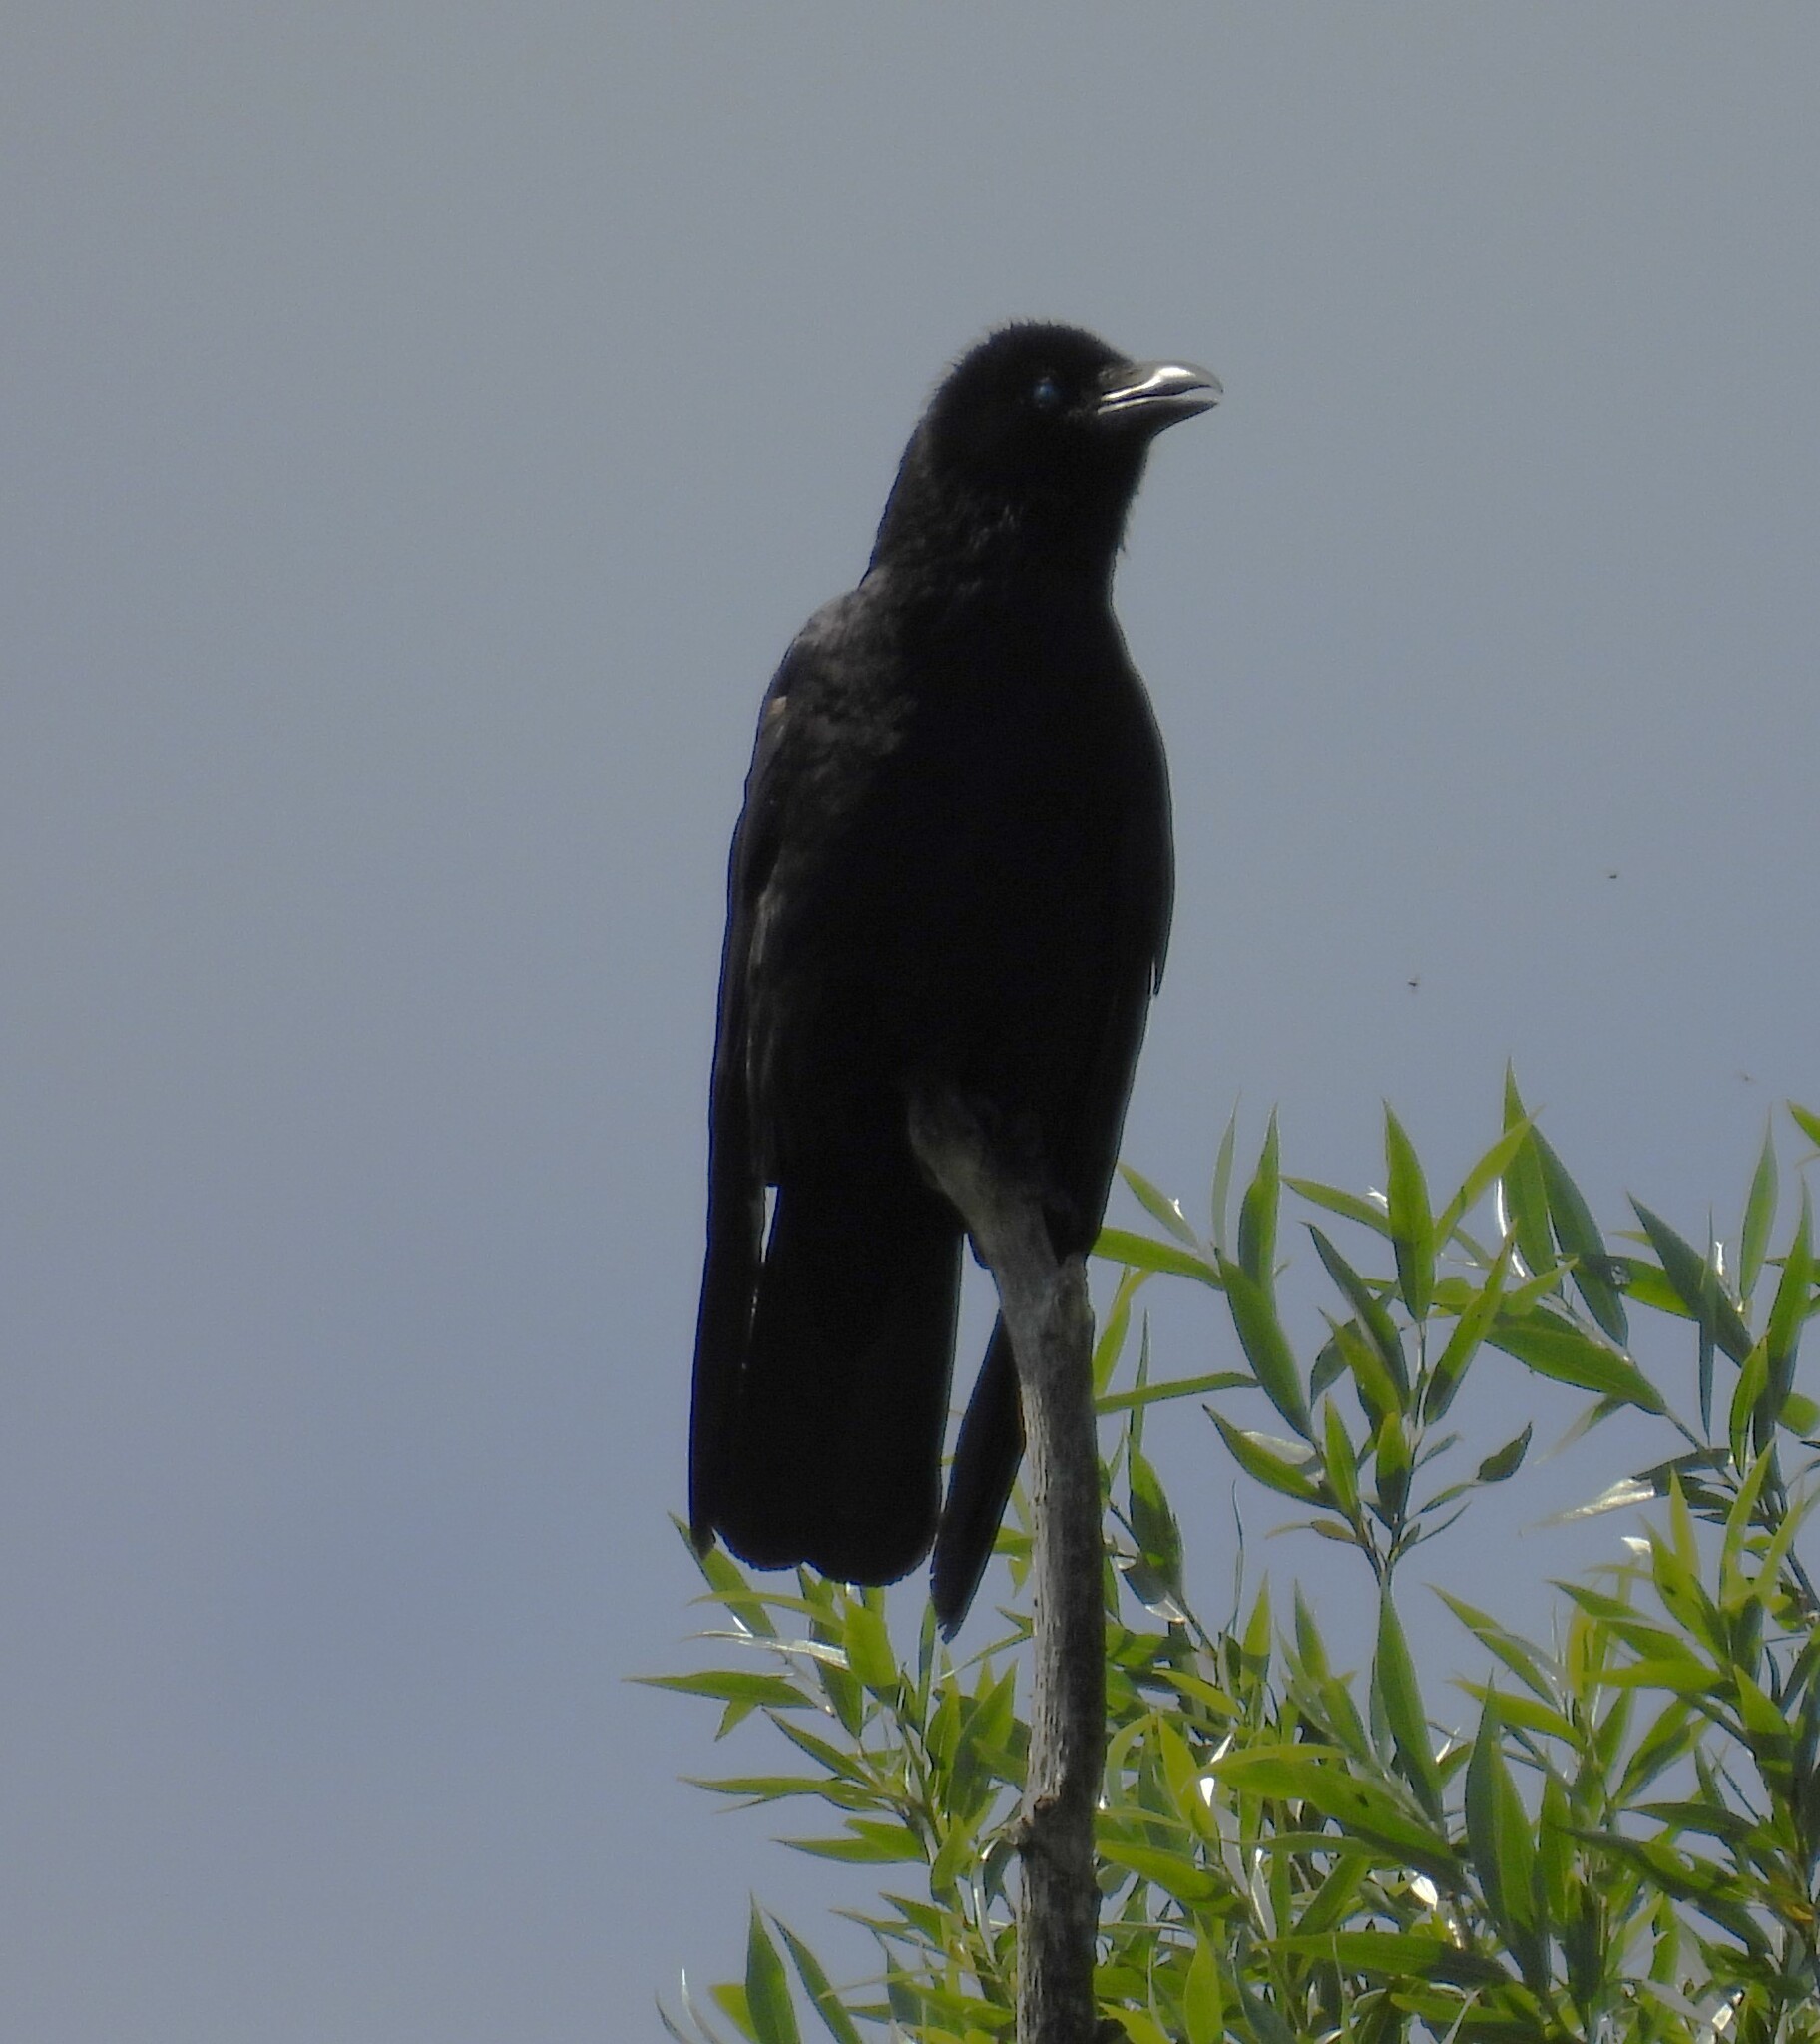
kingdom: Animalia
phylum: Chordata
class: Aves
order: Passeriformes
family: Corvidae
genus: Corvus
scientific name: Corvus corone
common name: Carrion crow
